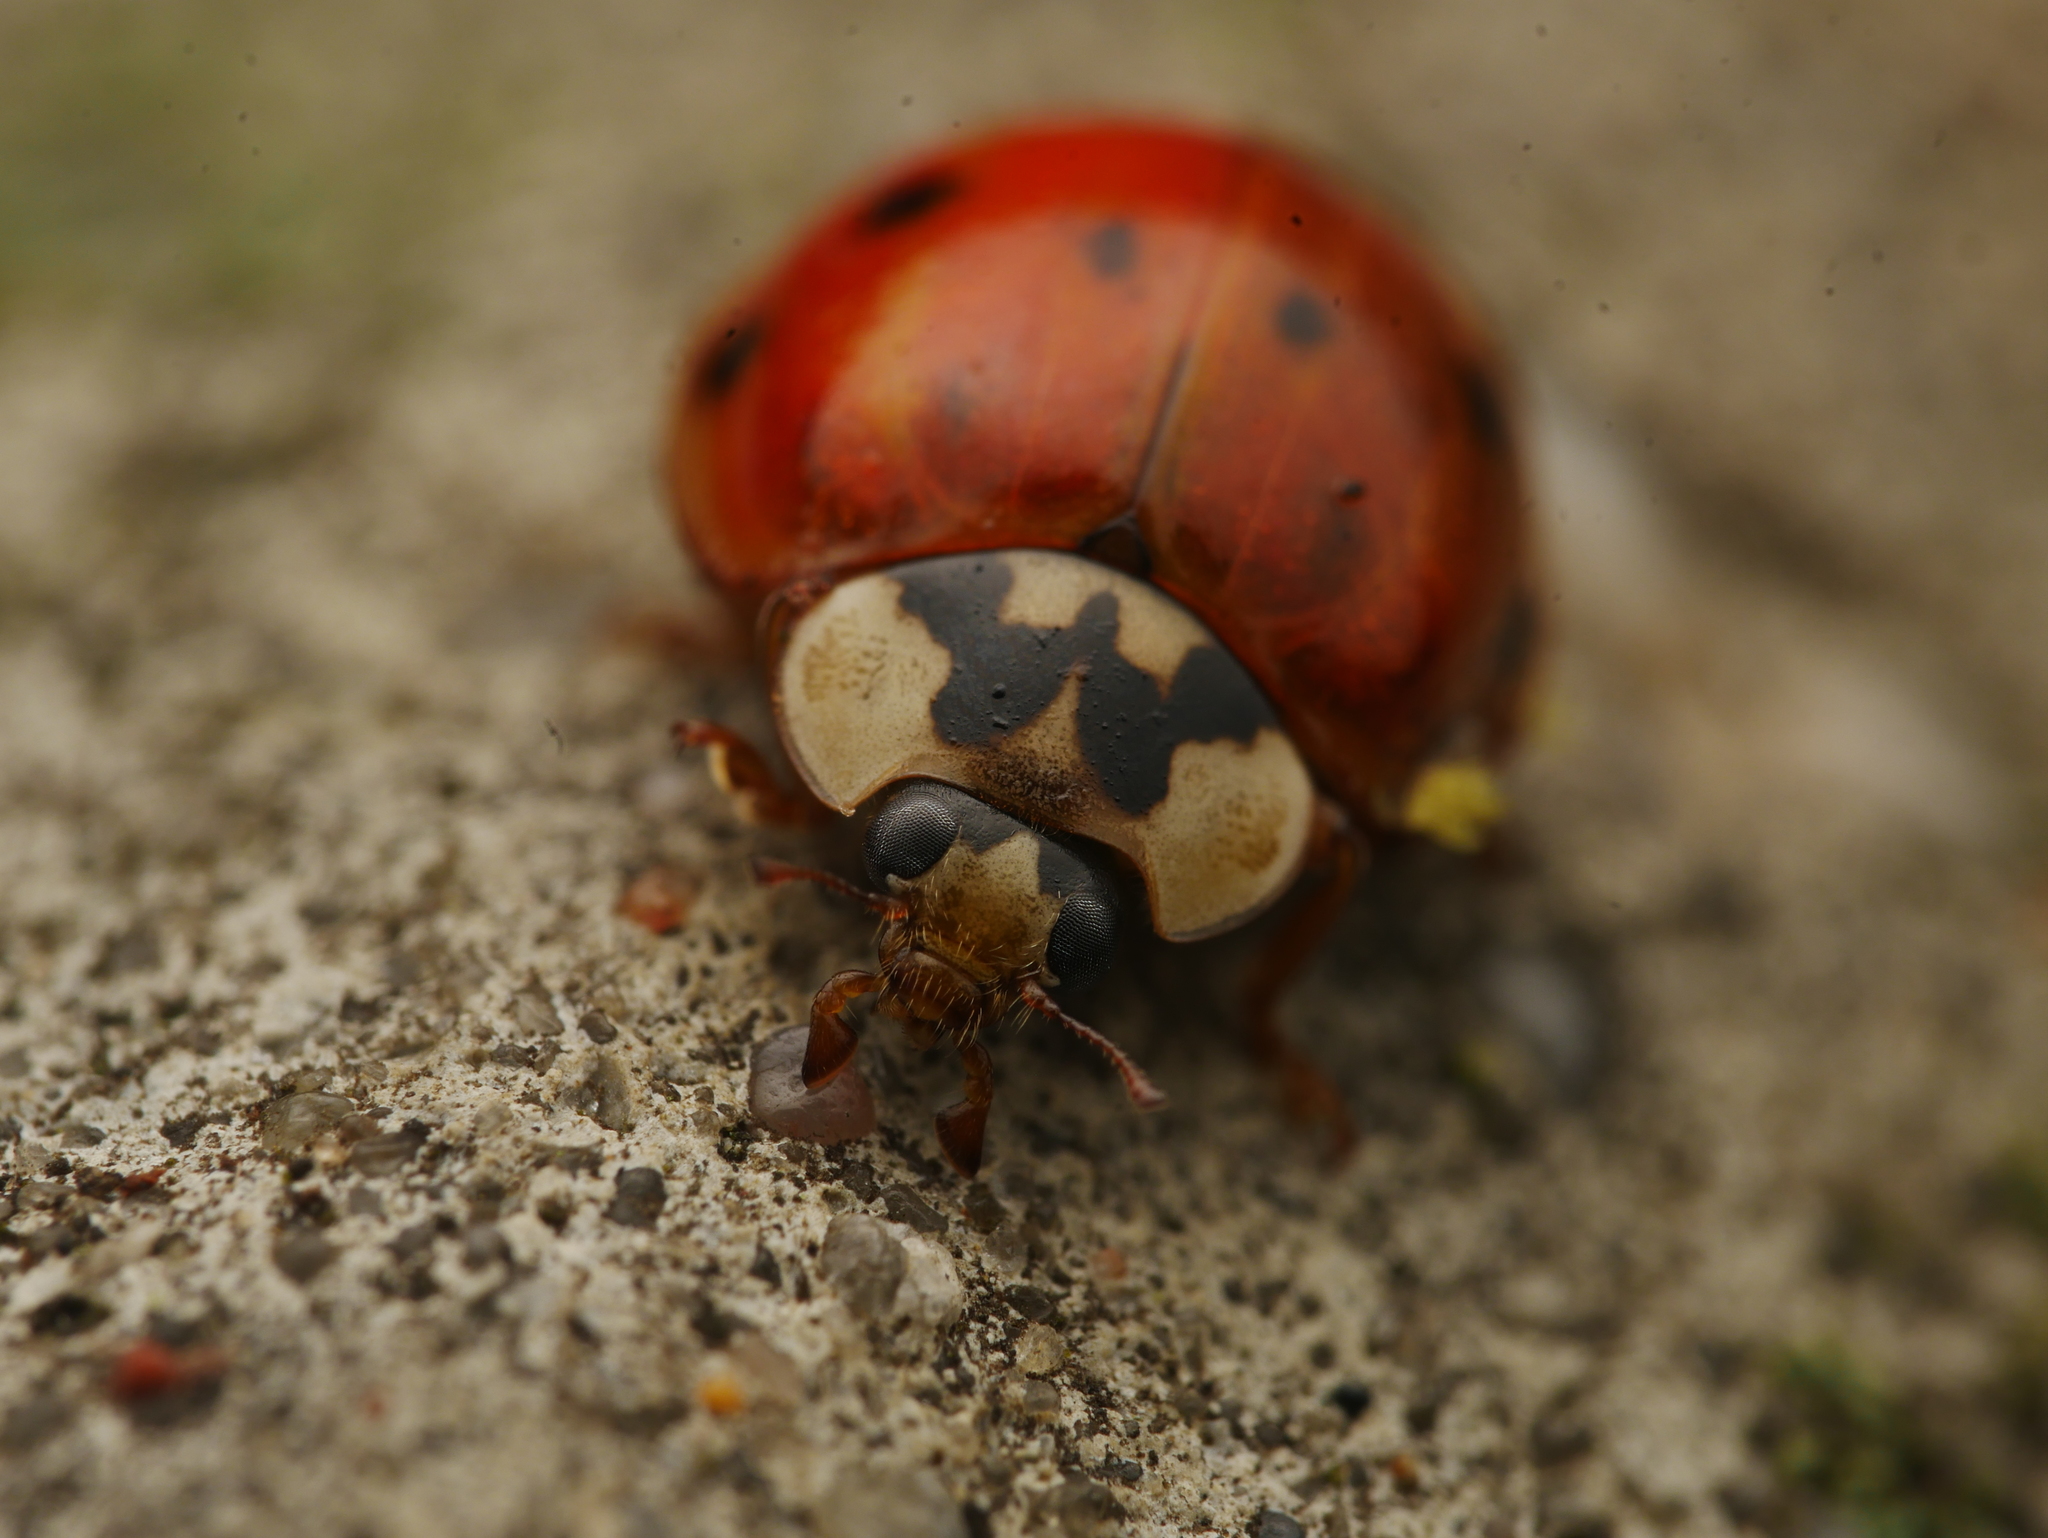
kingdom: Animalia
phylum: Arthropoda
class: Insecta
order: Coleoptera
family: Coccinellidae
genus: Harmonia
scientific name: Harmonia axyridis
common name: Harlequin ladybird
